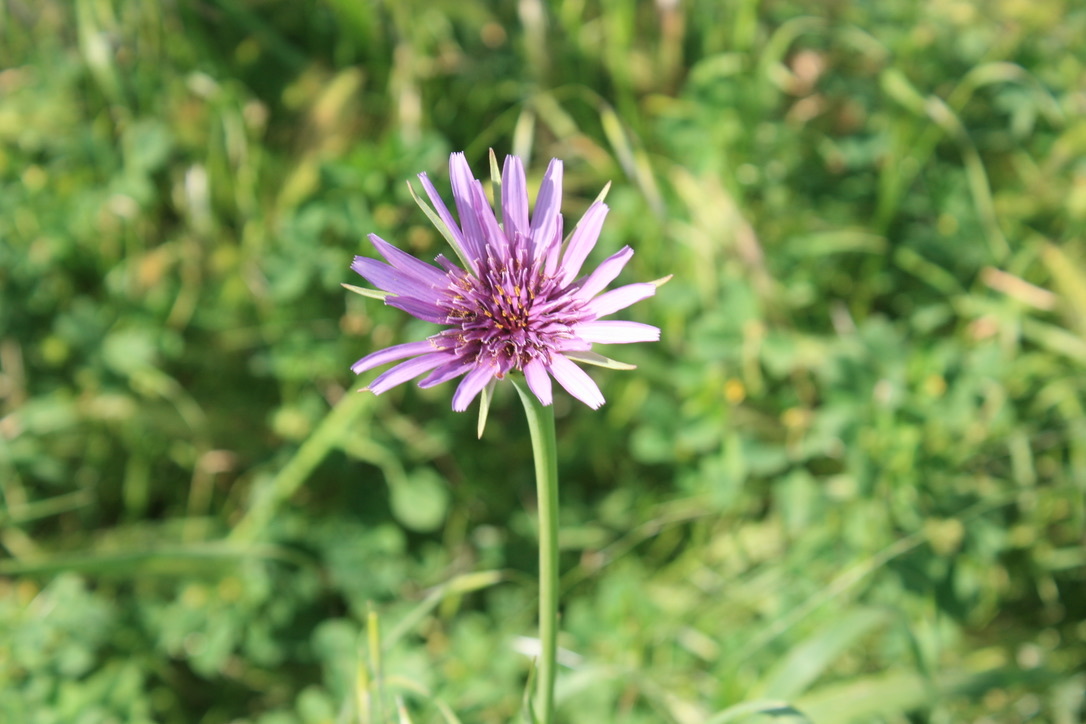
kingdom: Plantae
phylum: Tracheophyta
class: Magnoliopsida
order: Asterales
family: Asteraceae
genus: Tragopogon
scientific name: Tragopogon porrifolius
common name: Salsify
